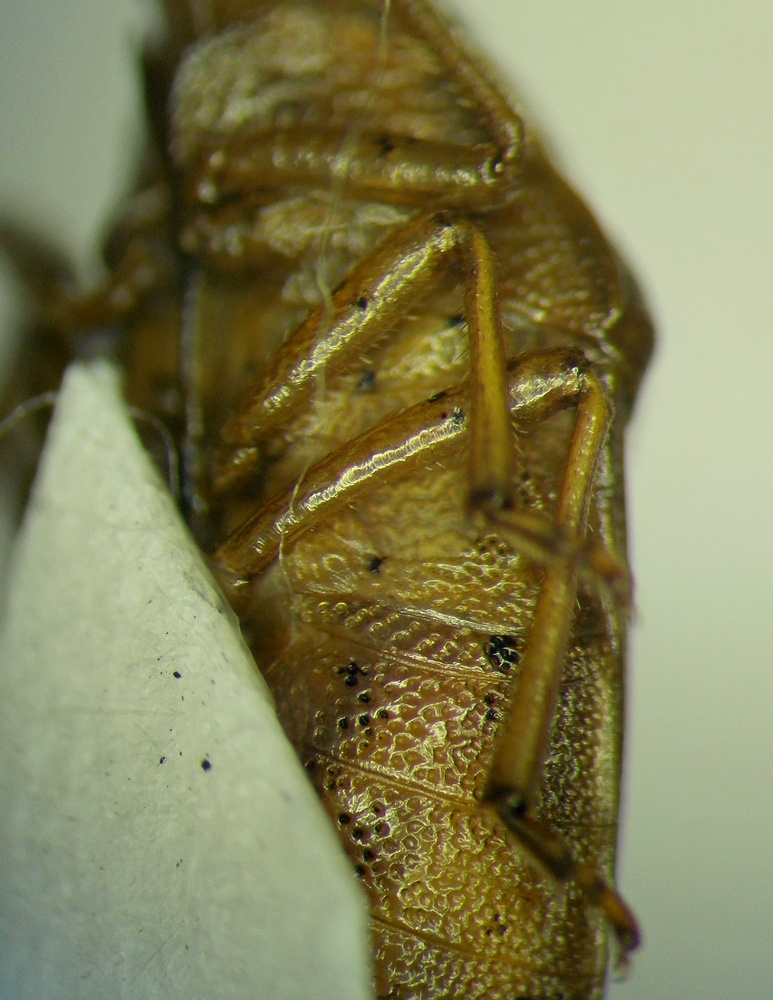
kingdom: Animalia
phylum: Arthropoda
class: Insecta
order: Hemiptera
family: Pentatomidae
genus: Aelia
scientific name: Aelia acuminata
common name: Bishop's mitre
